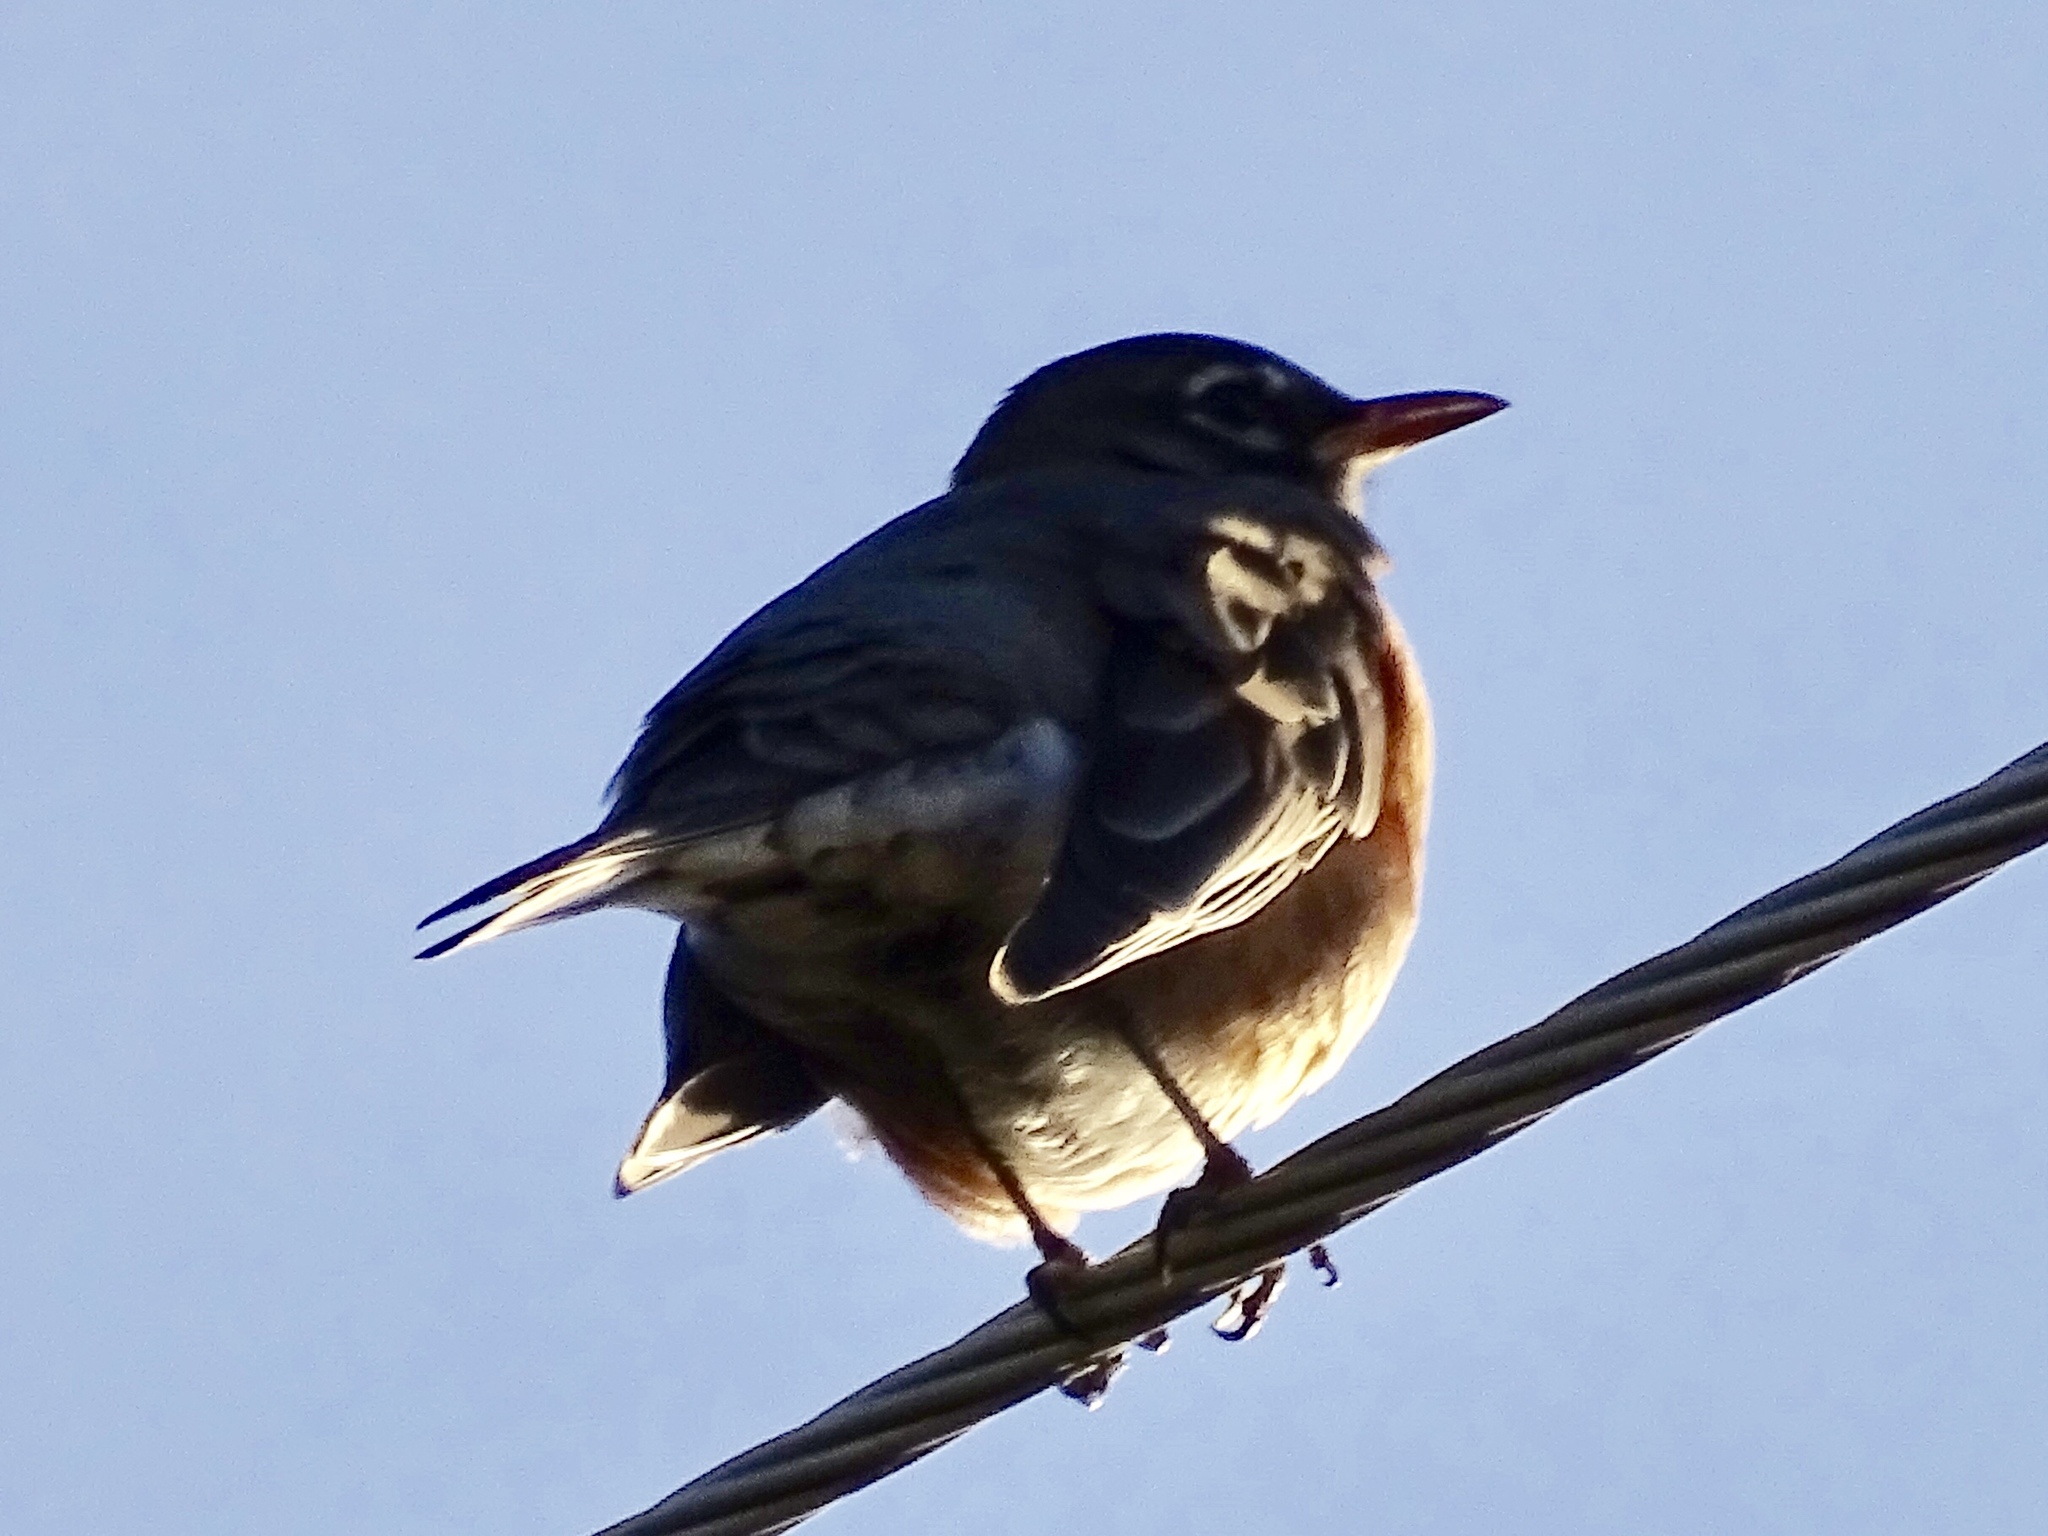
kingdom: Animalia
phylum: Chordata
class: Aves
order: Passeriformes
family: Turdidae
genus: Turdus
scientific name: Turdus migratorius
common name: American robin
